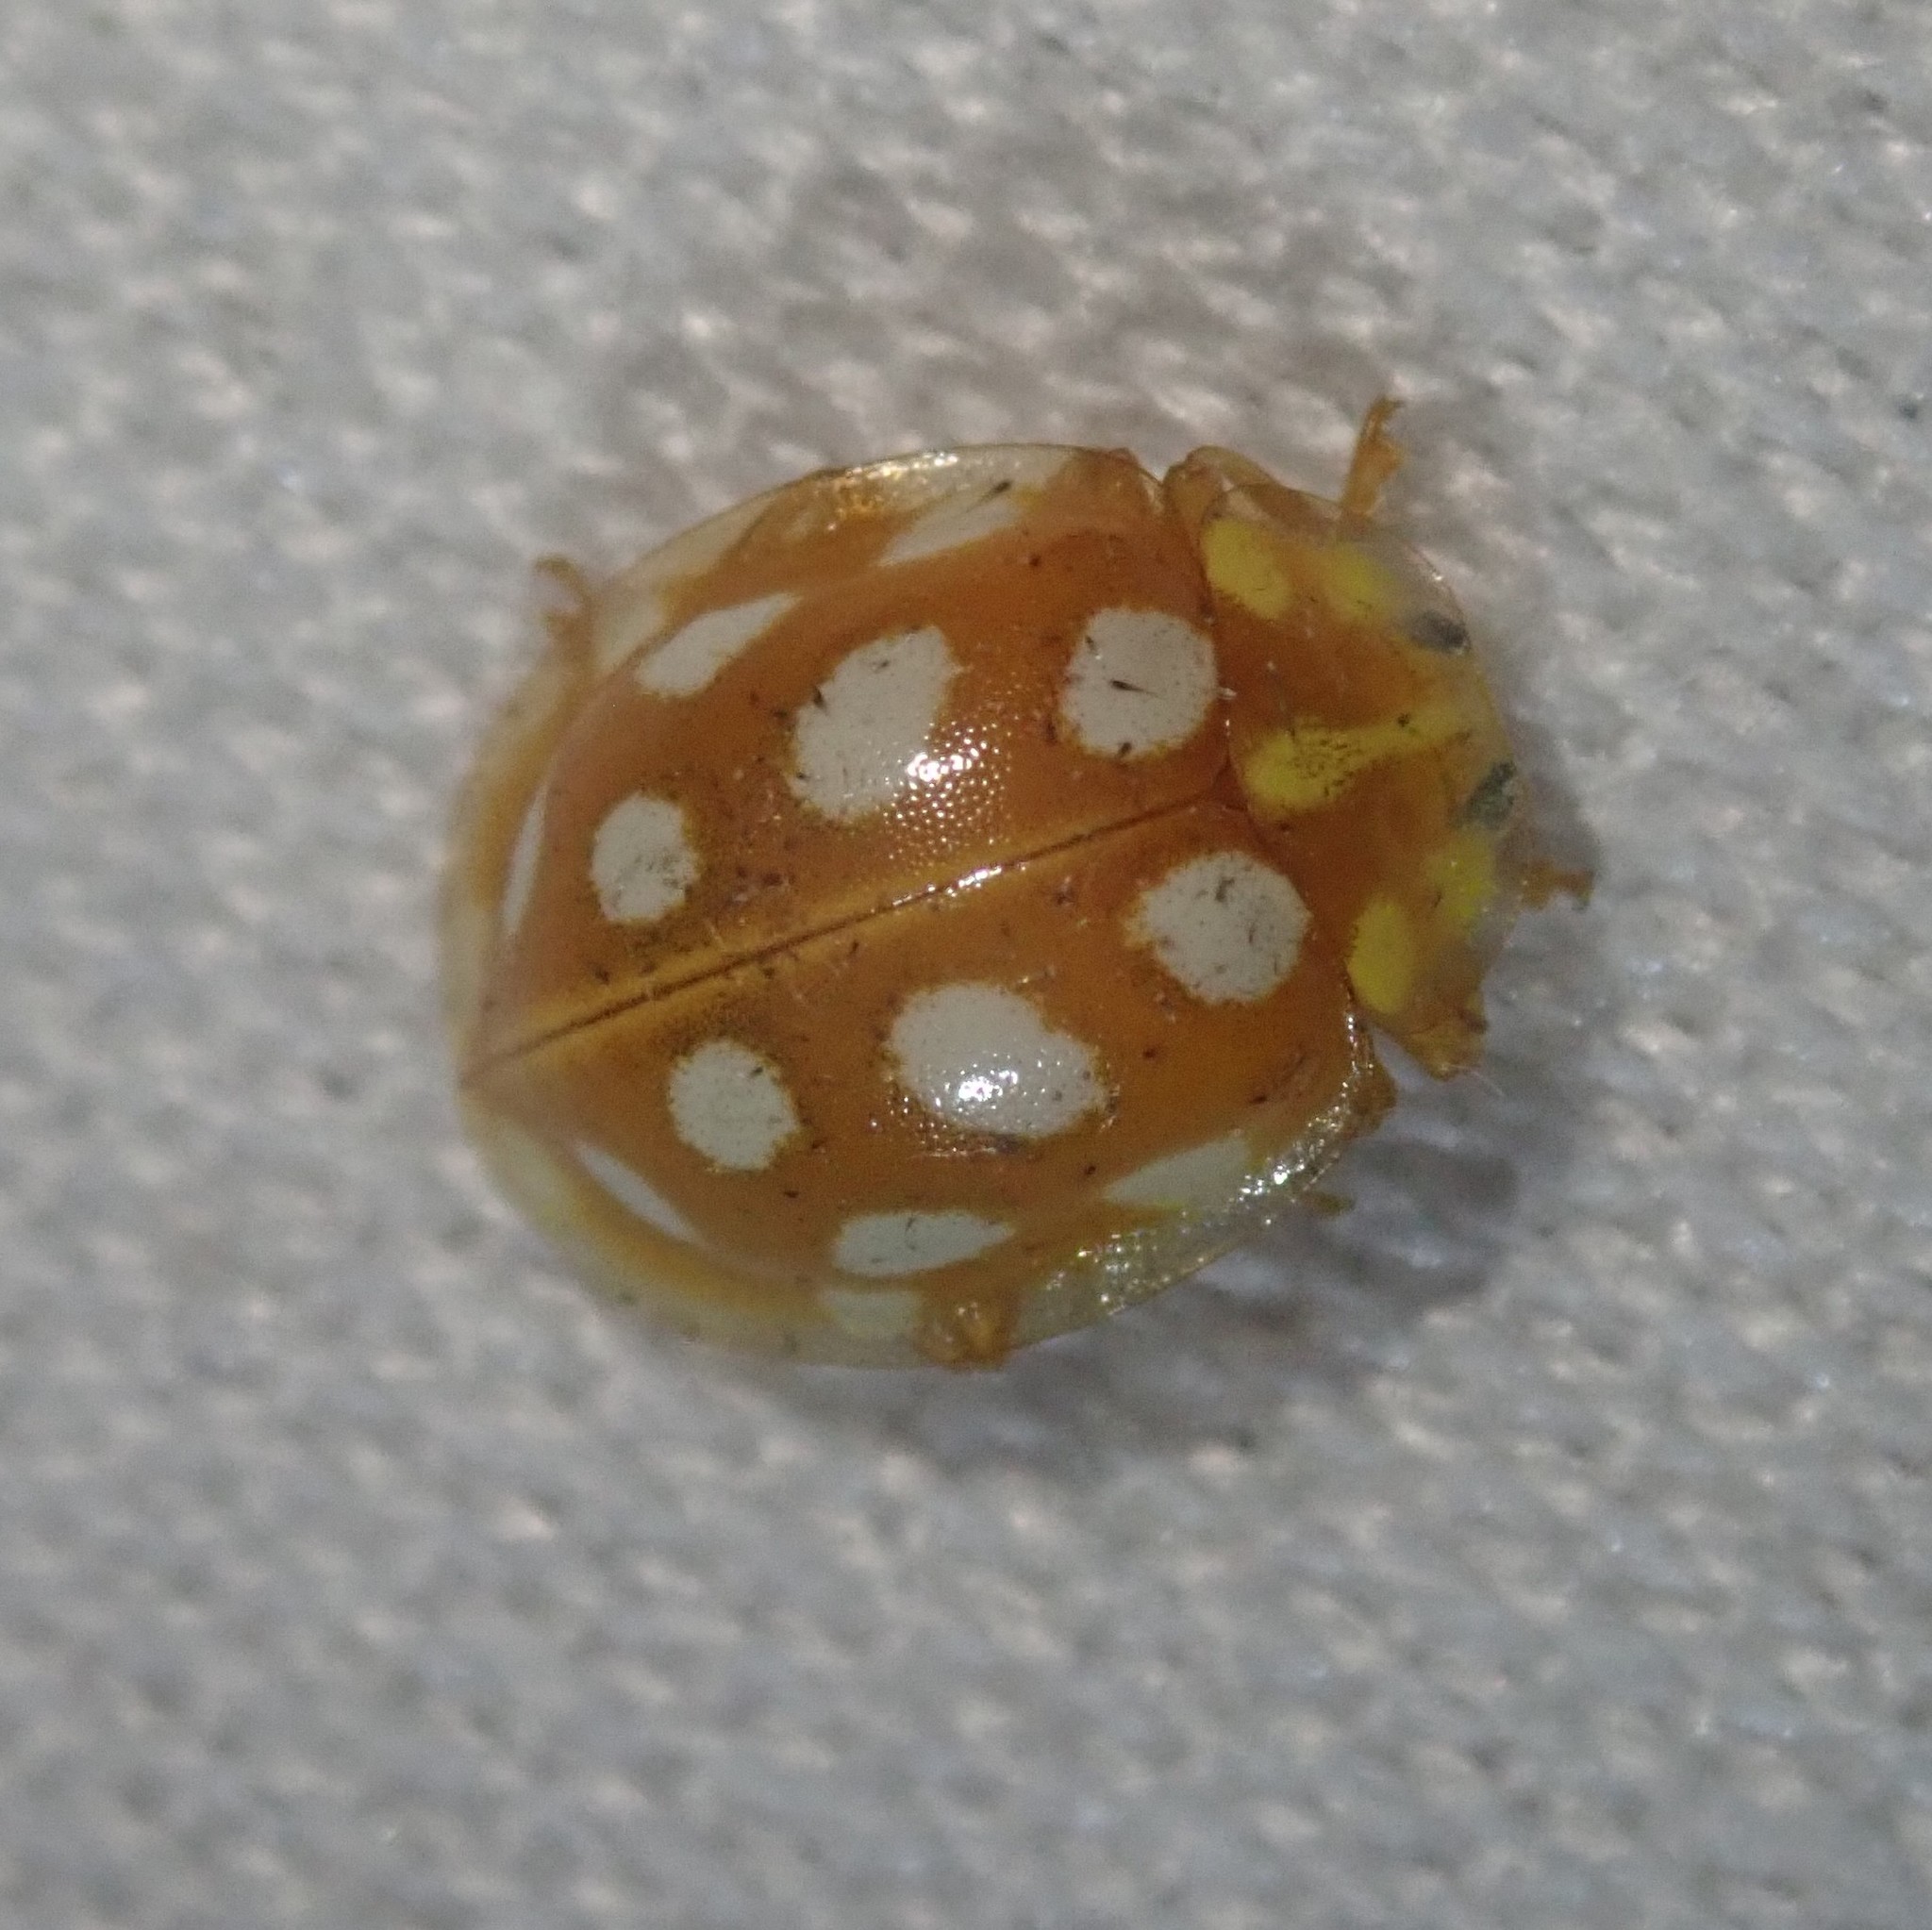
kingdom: Animalia
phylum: Arthropoda
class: Insecta
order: Coleoptera
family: Coccinellidae
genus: Halyzia
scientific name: Halyzia sedecimguttata
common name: Orange ladybird
